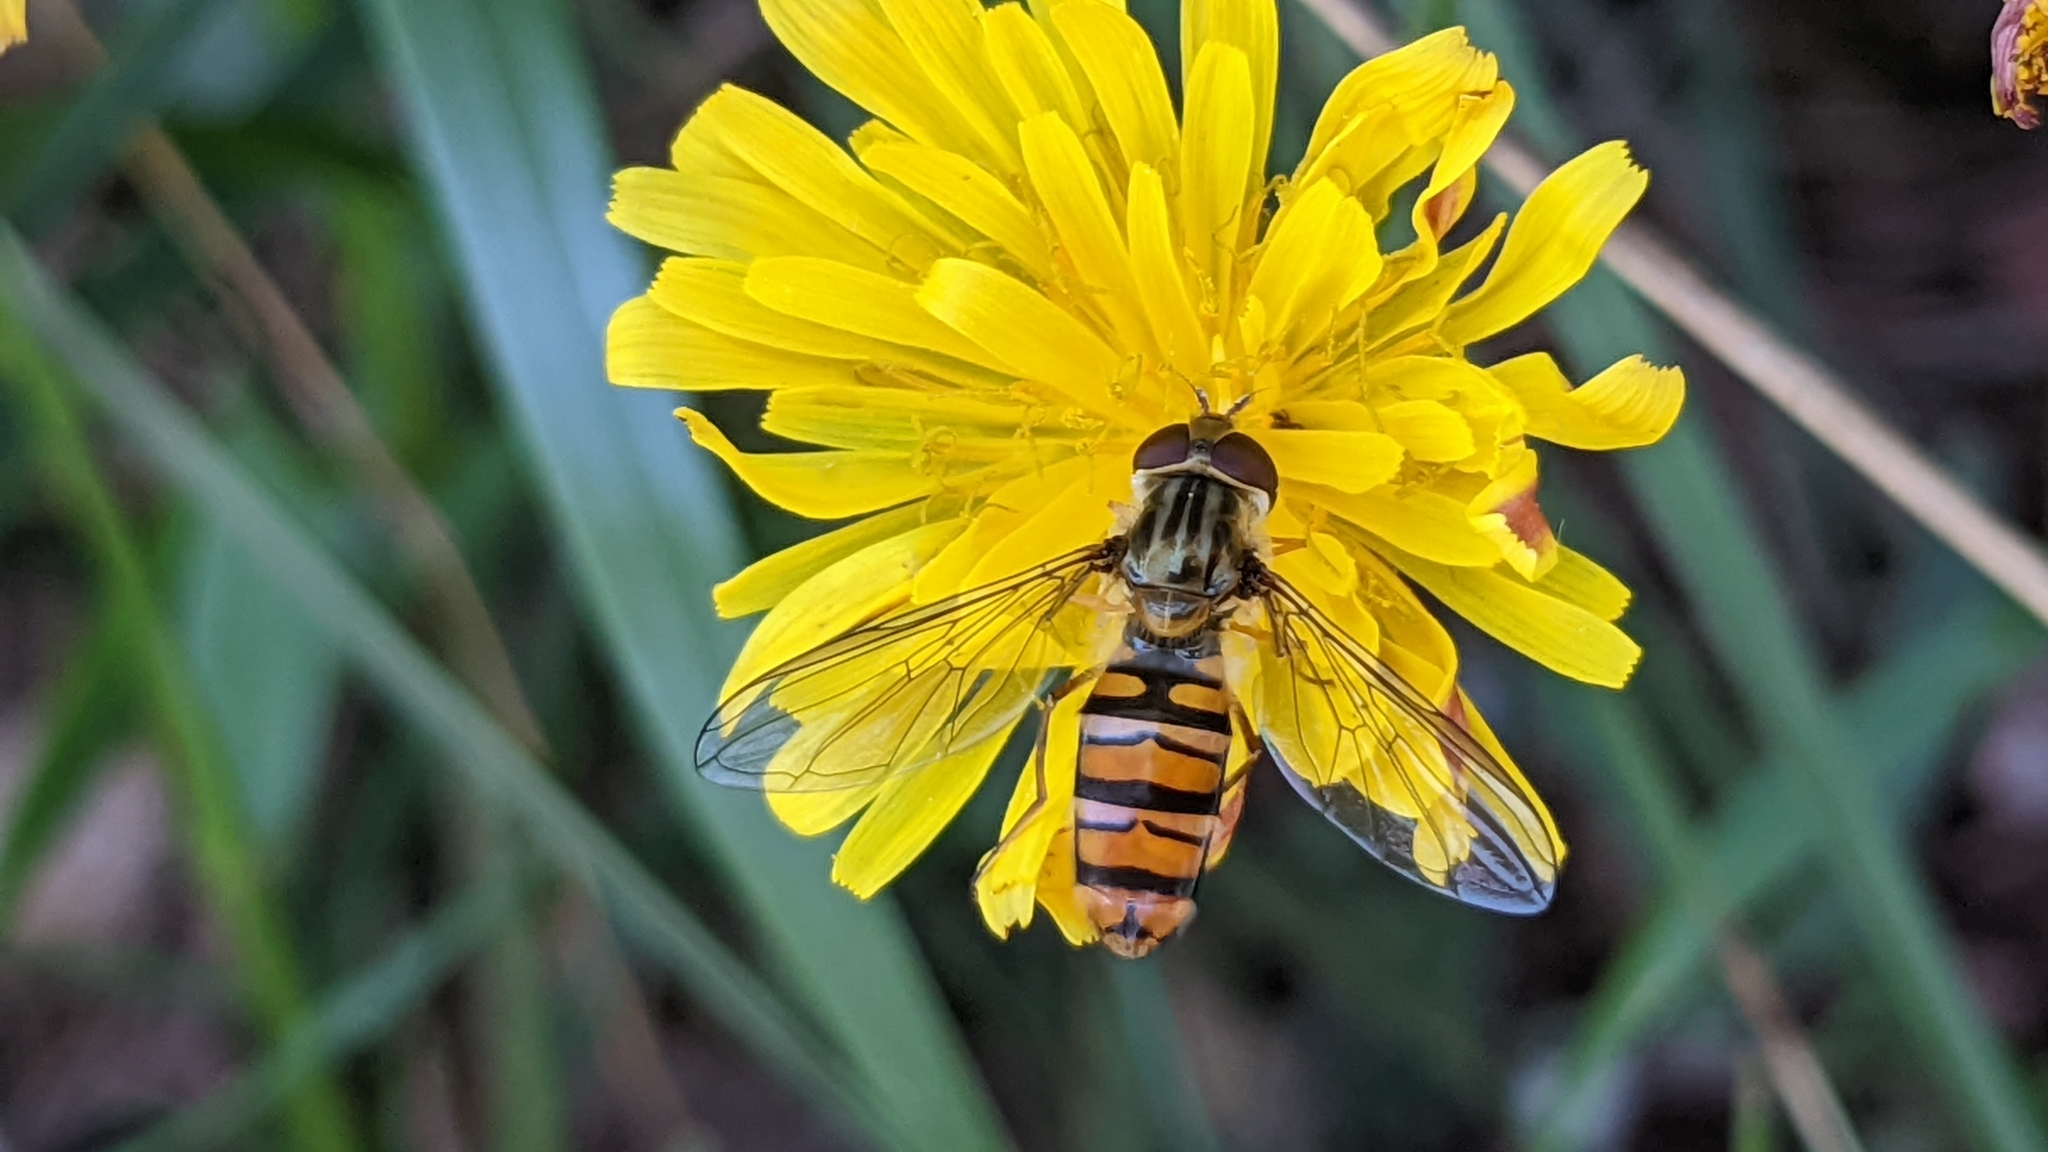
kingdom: Animalia
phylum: Arthropoda
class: Insecta
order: Diptera
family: Syrphidae
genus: Episyrphus
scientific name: Episyrphus balteatus
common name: Marmalade hoverfly
